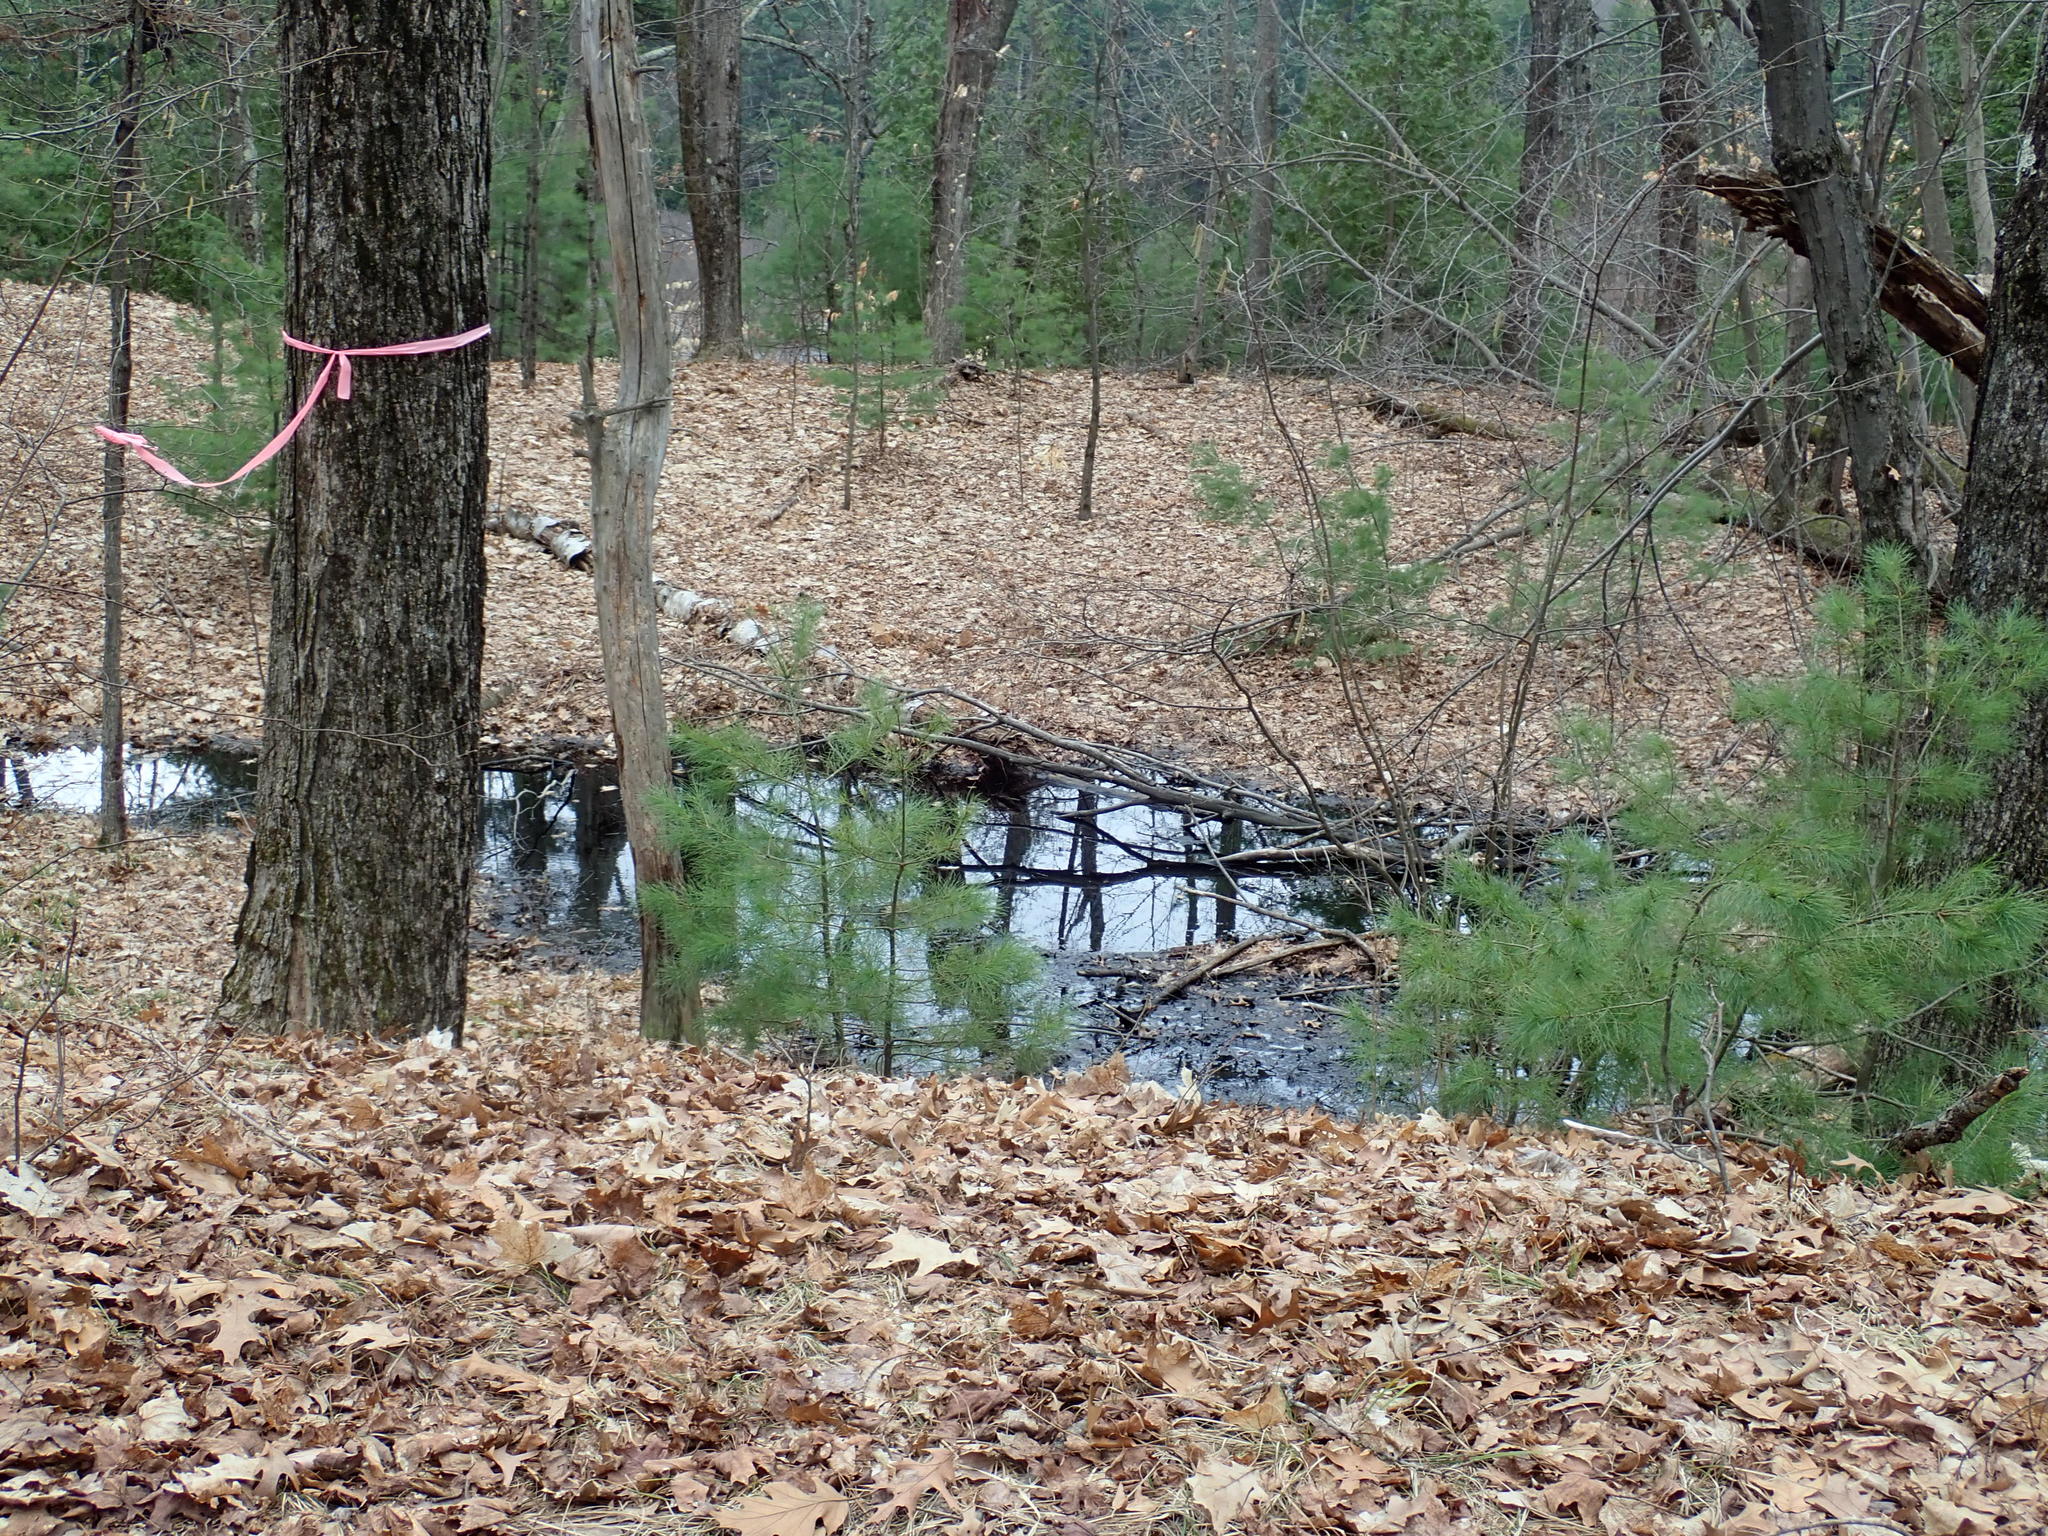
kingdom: Animalia
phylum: Chordata
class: Amphibia
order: Anura
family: Ranidae
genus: Lithobates
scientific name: Lithobates sylvaticus
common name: Wood frog
